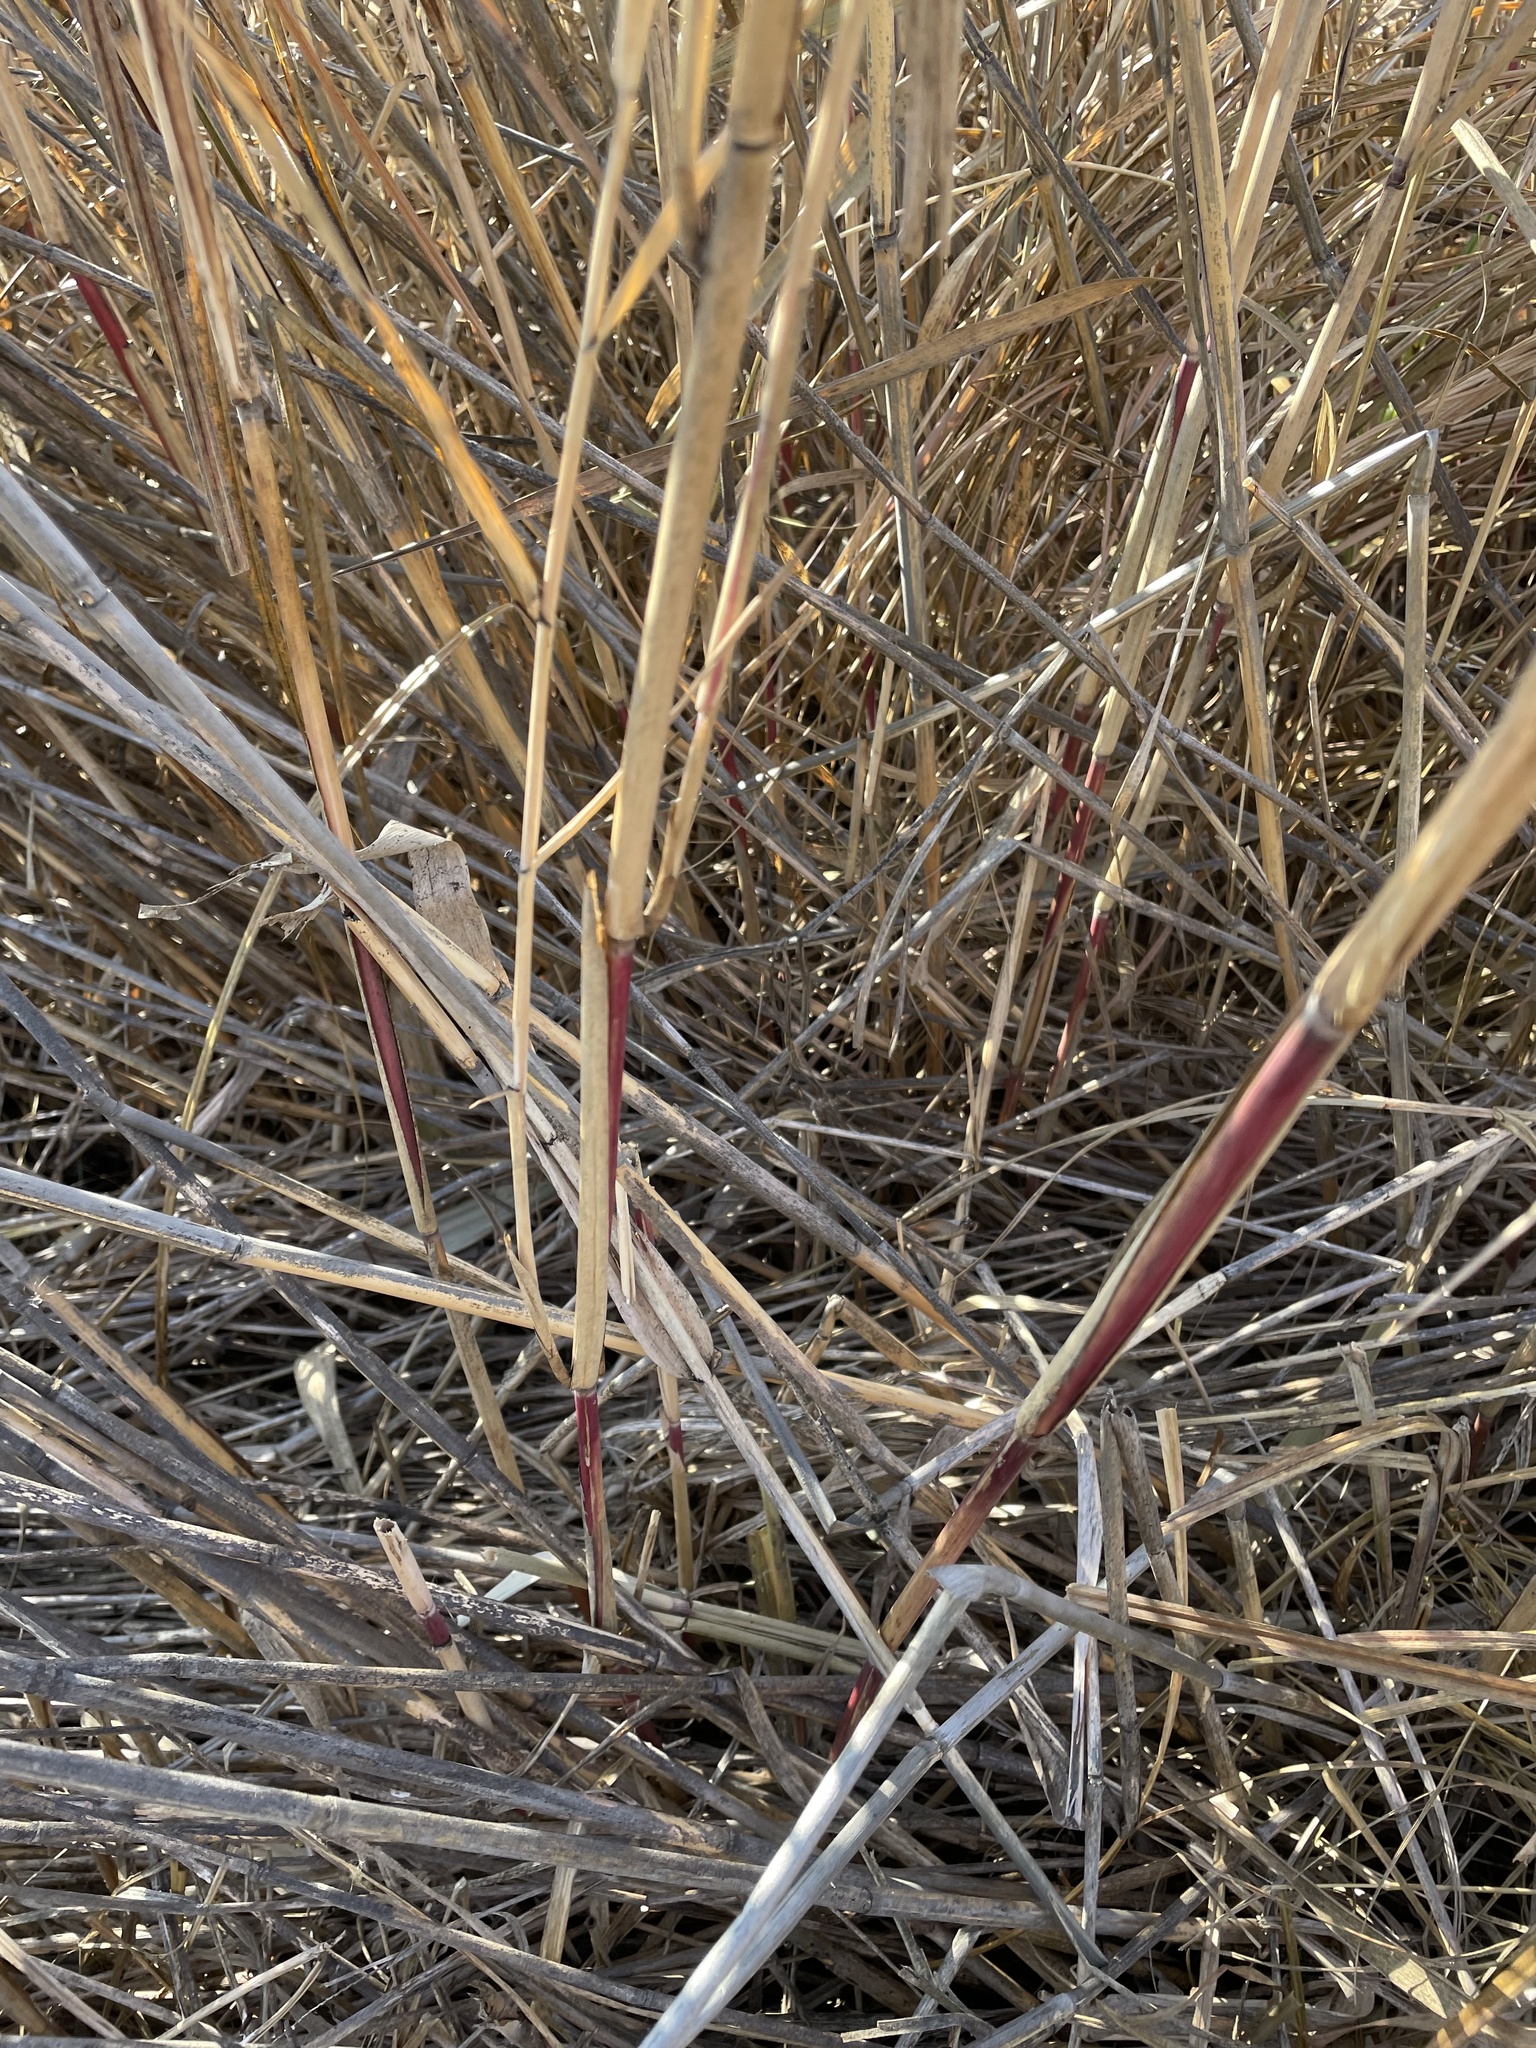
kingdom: Plantae
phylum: Tracheophyta
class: Liliopsida
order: Poales
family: Poaceae
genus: Phragmites
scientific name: Phragmites australis
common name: Common reed
